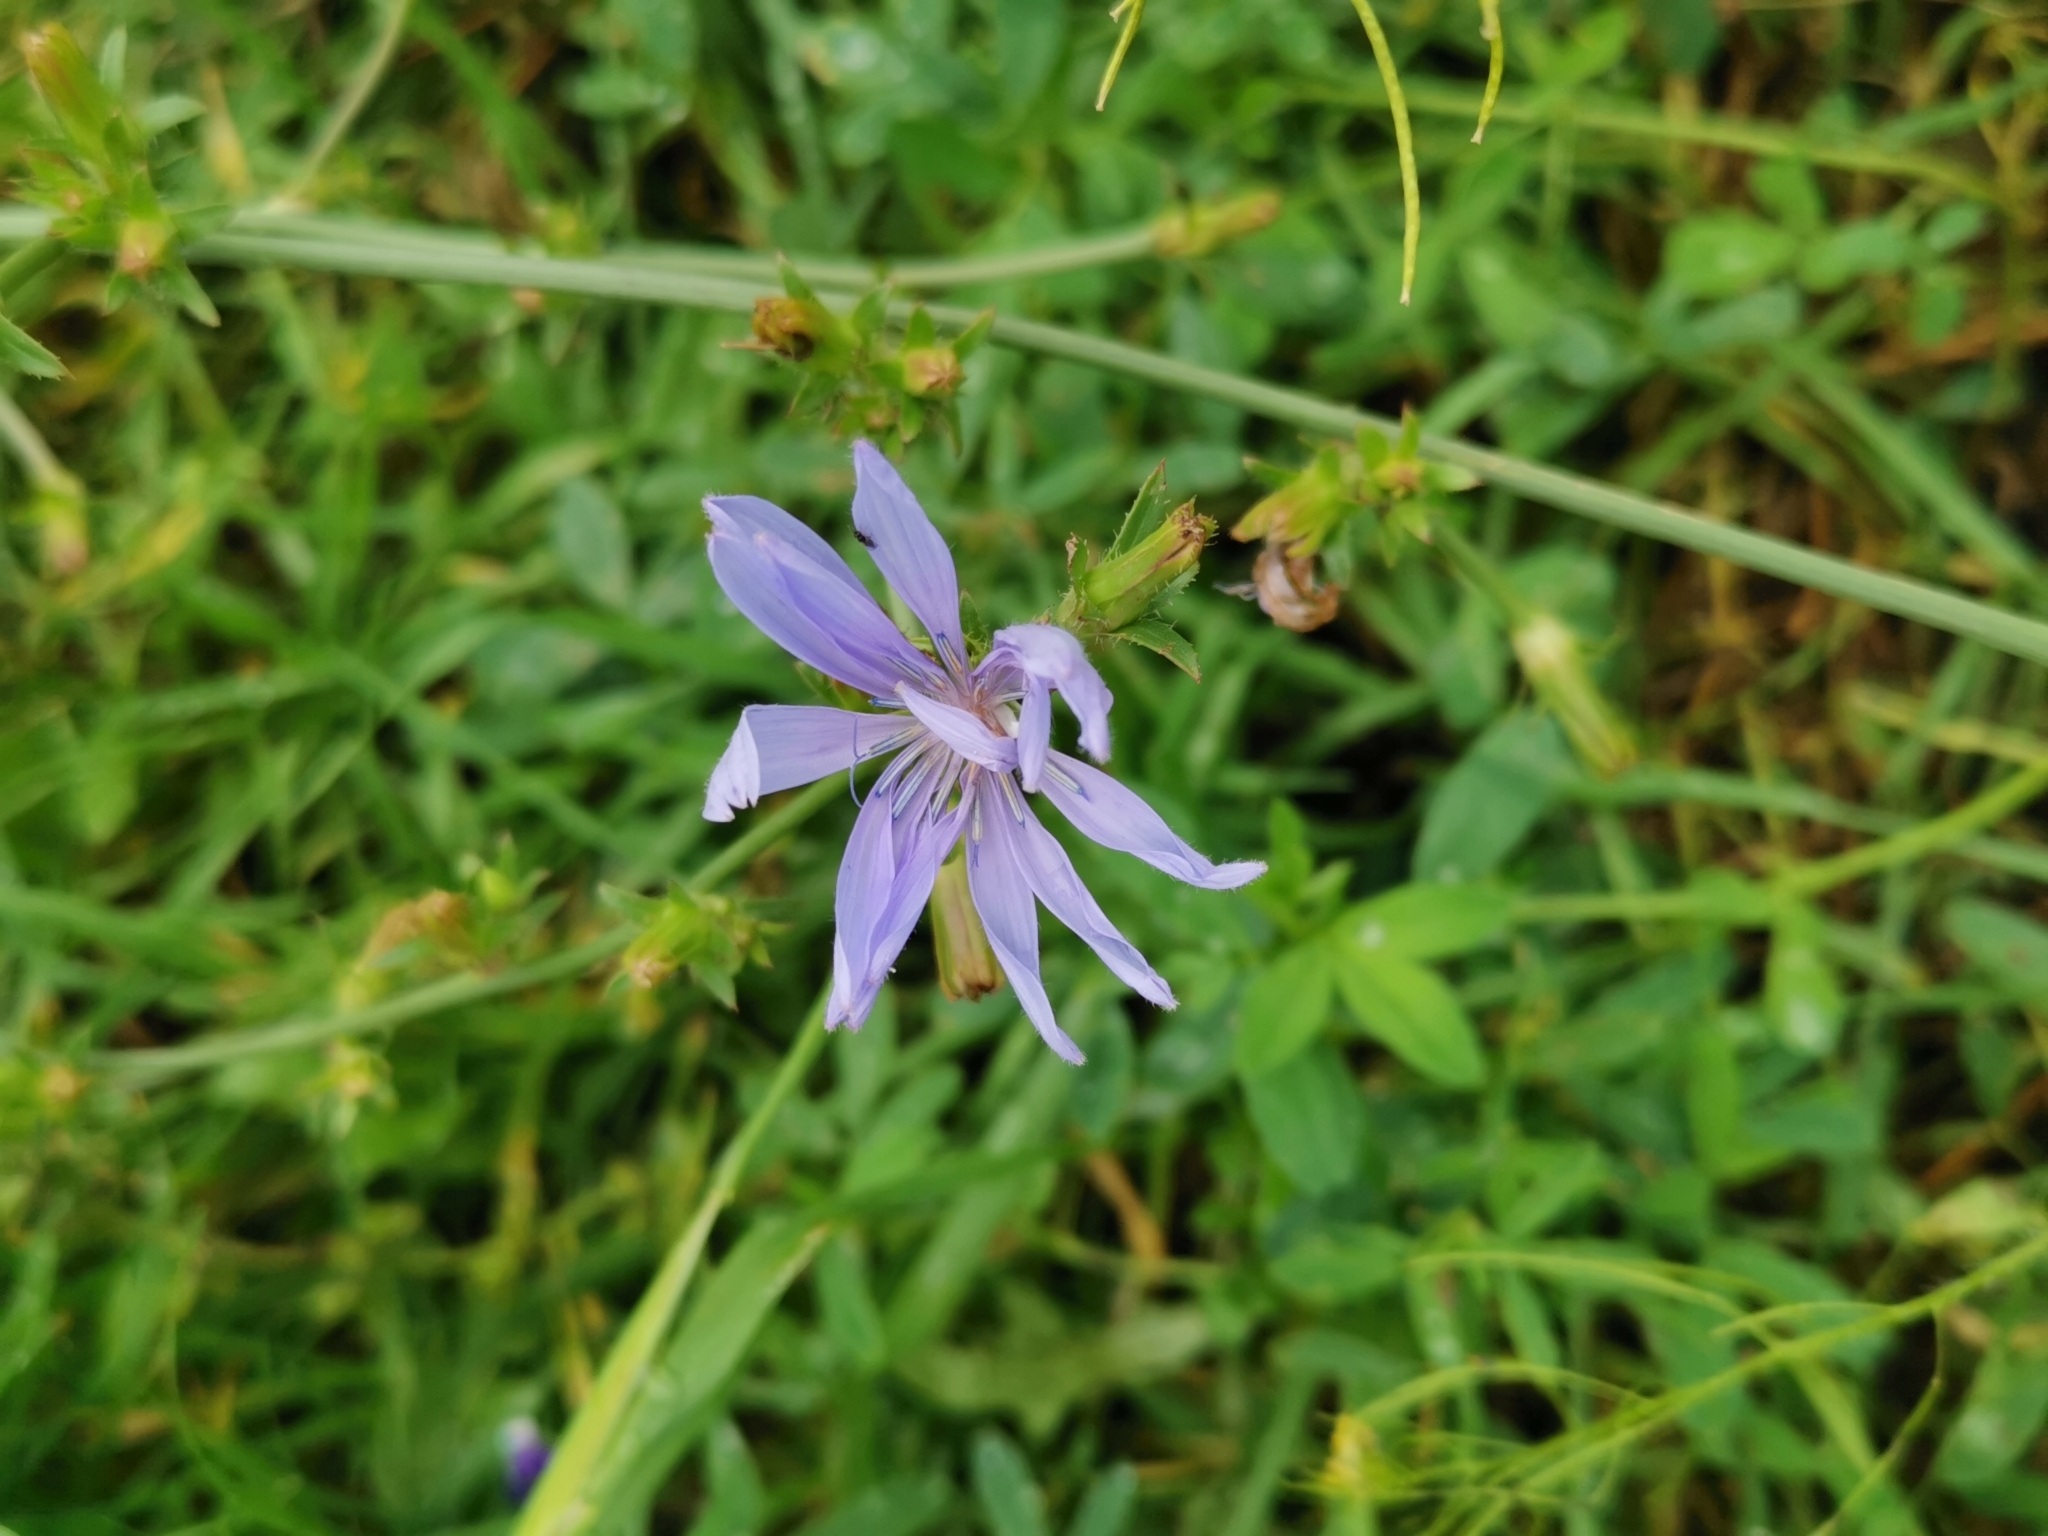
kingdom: Plantae
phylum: Tracheophyta
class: Magnoliopsida
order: Asterales
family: Asteraceae
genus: Cichorium
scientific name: Cichorium intybus
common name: Chicory
